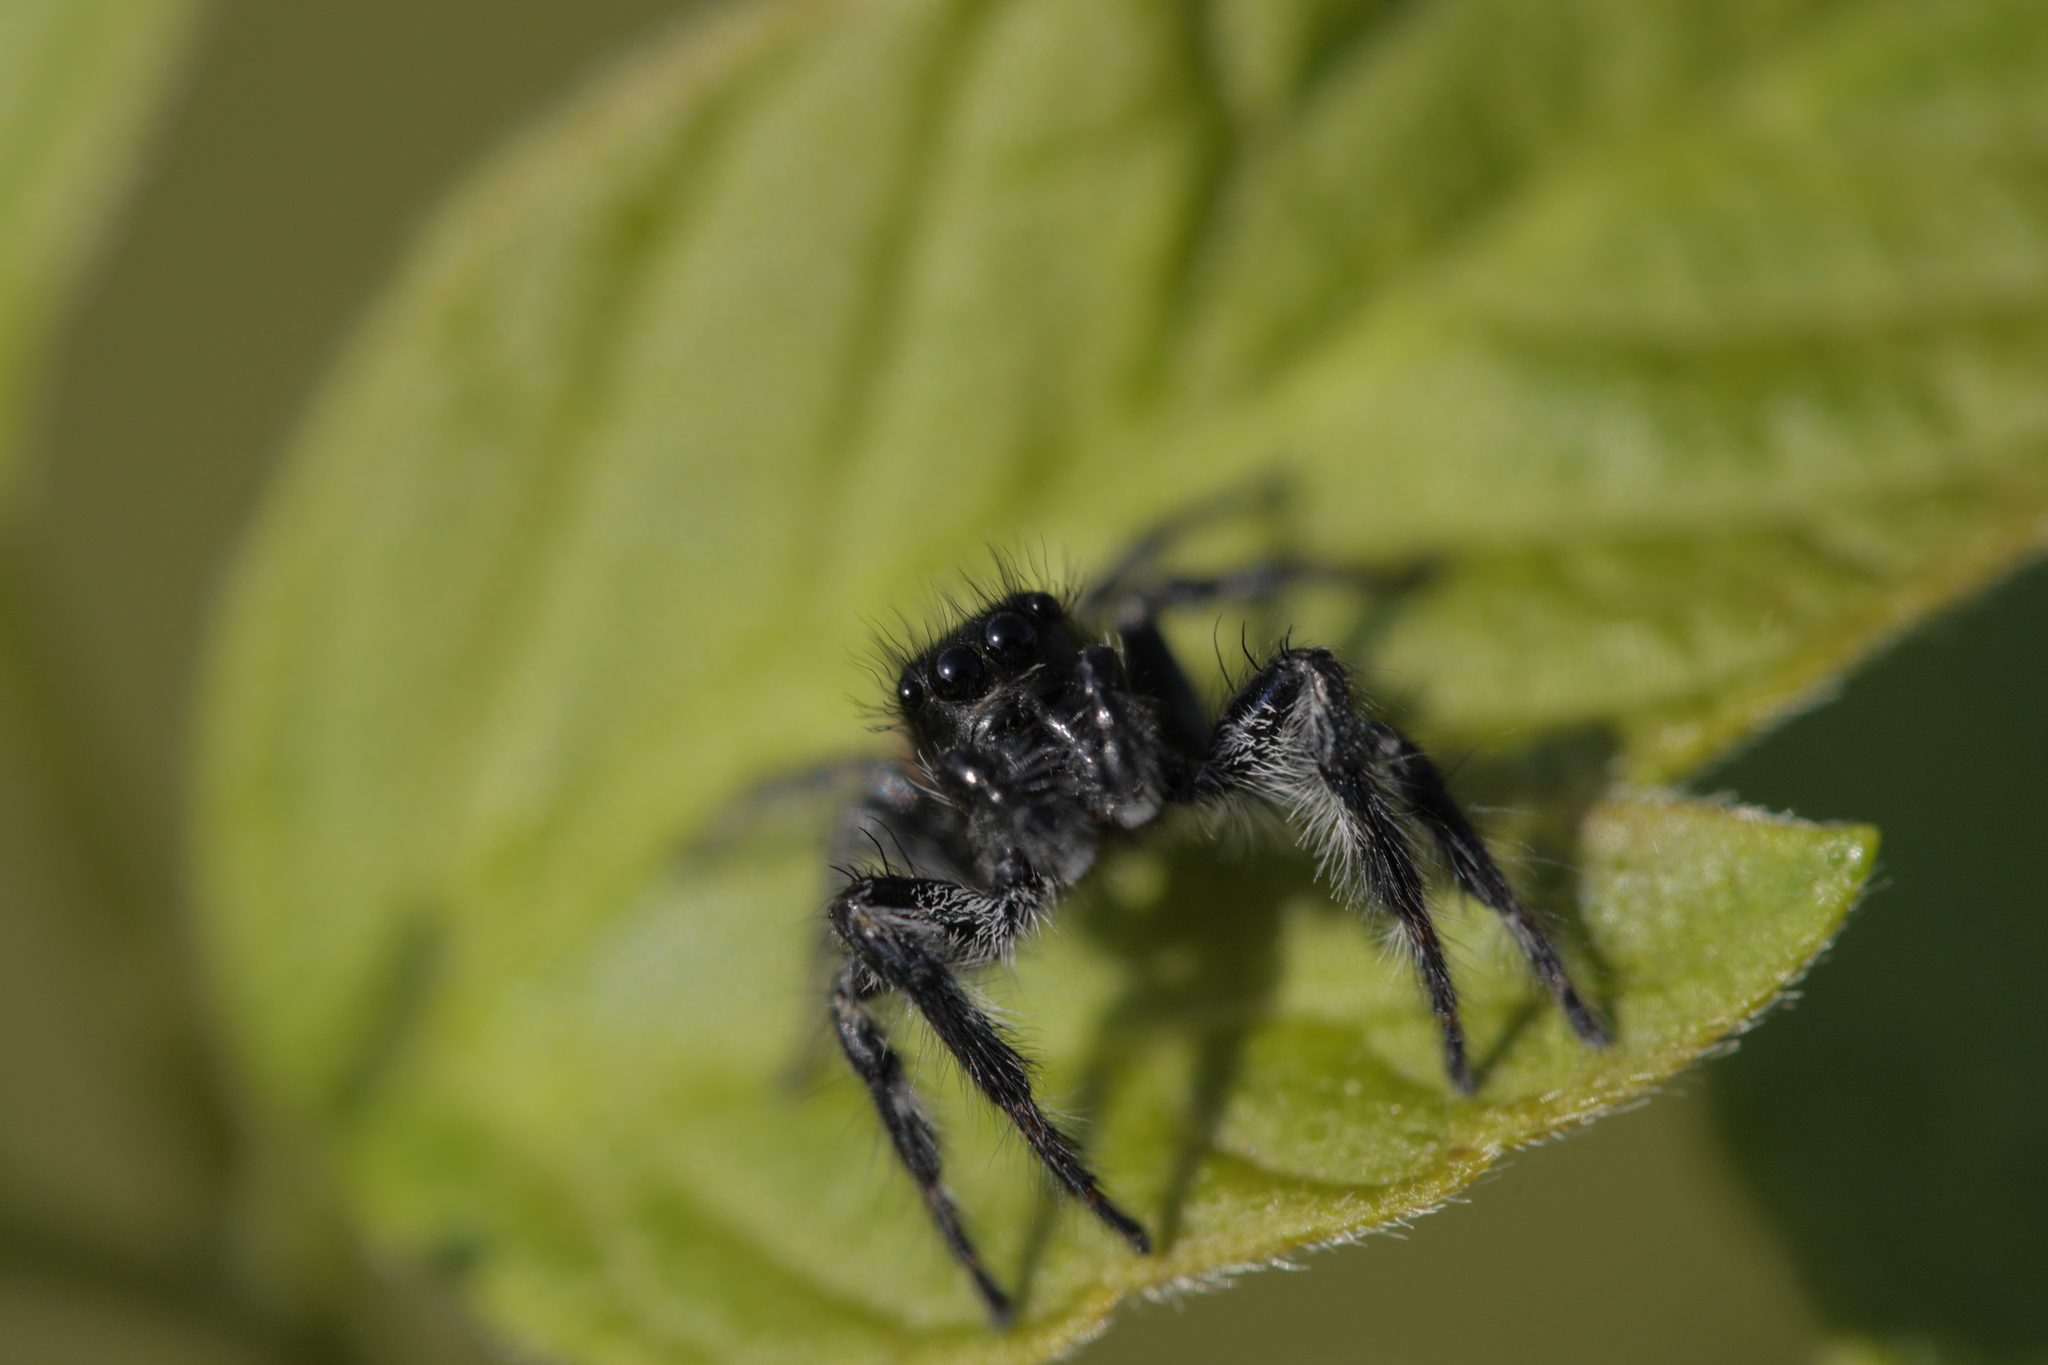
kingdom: Animalia
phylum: Arthropoda
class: Arachnida
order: Araneae
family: Salticidae
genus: Carrhotus
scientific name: Carrhotus xanthogramma
